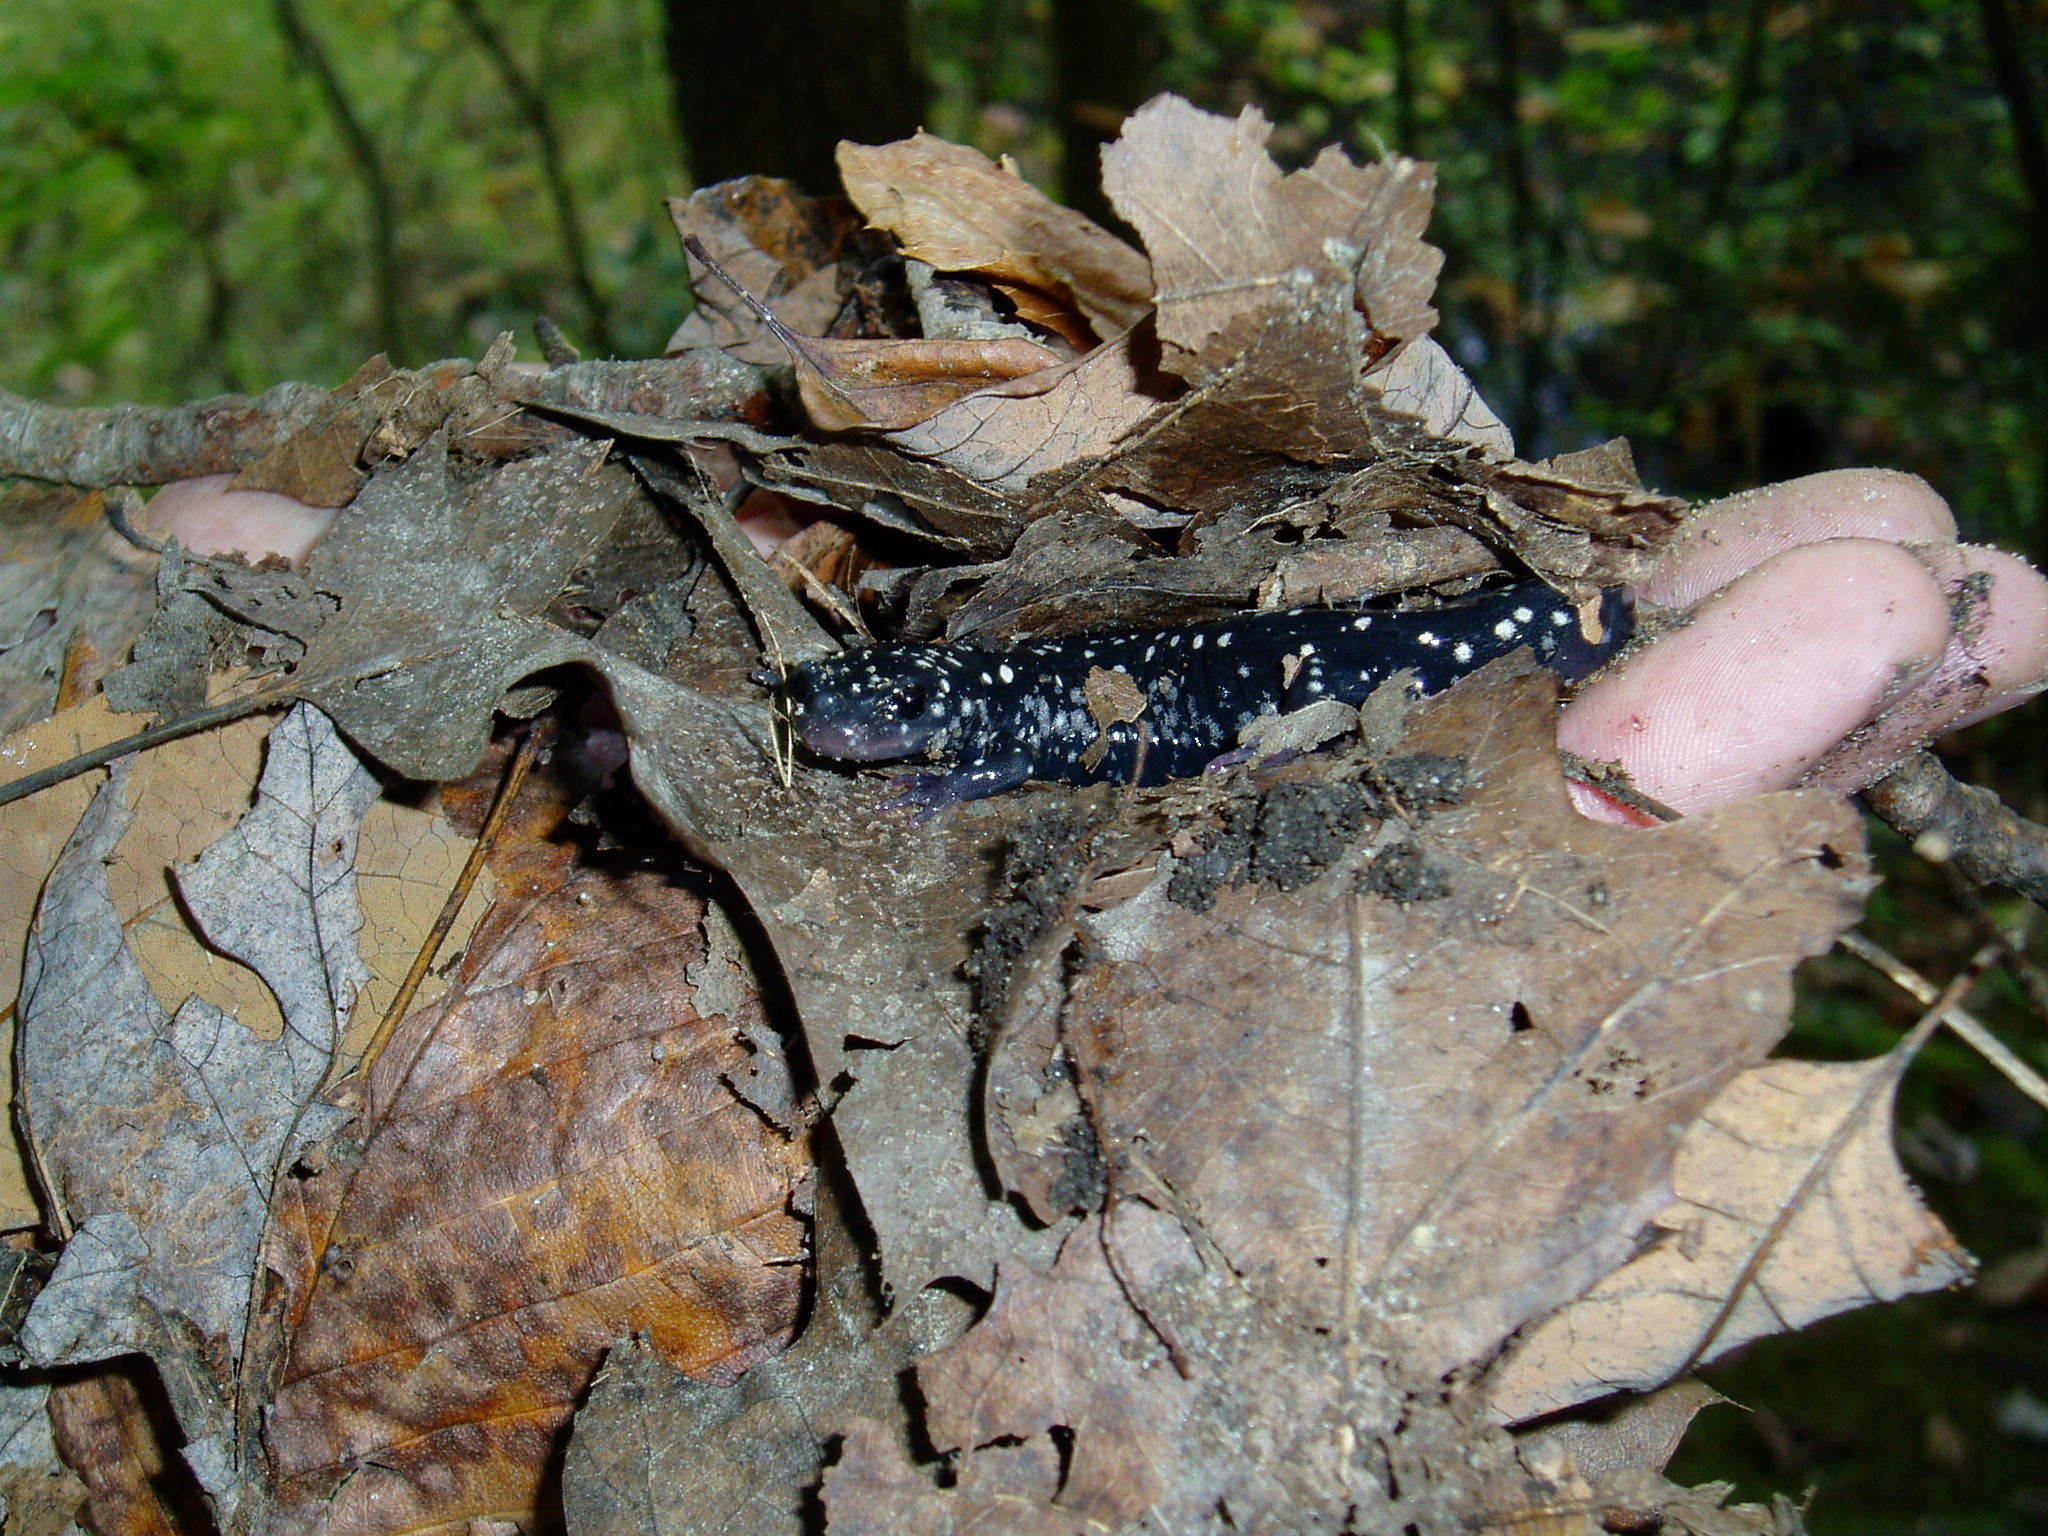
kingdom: Animalia
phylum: Chordata
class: Amphibia
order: Caudata
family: Plethodontidae
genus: Plethodon
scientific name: Plethodon glutinosus
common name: Northern slimy salamander
